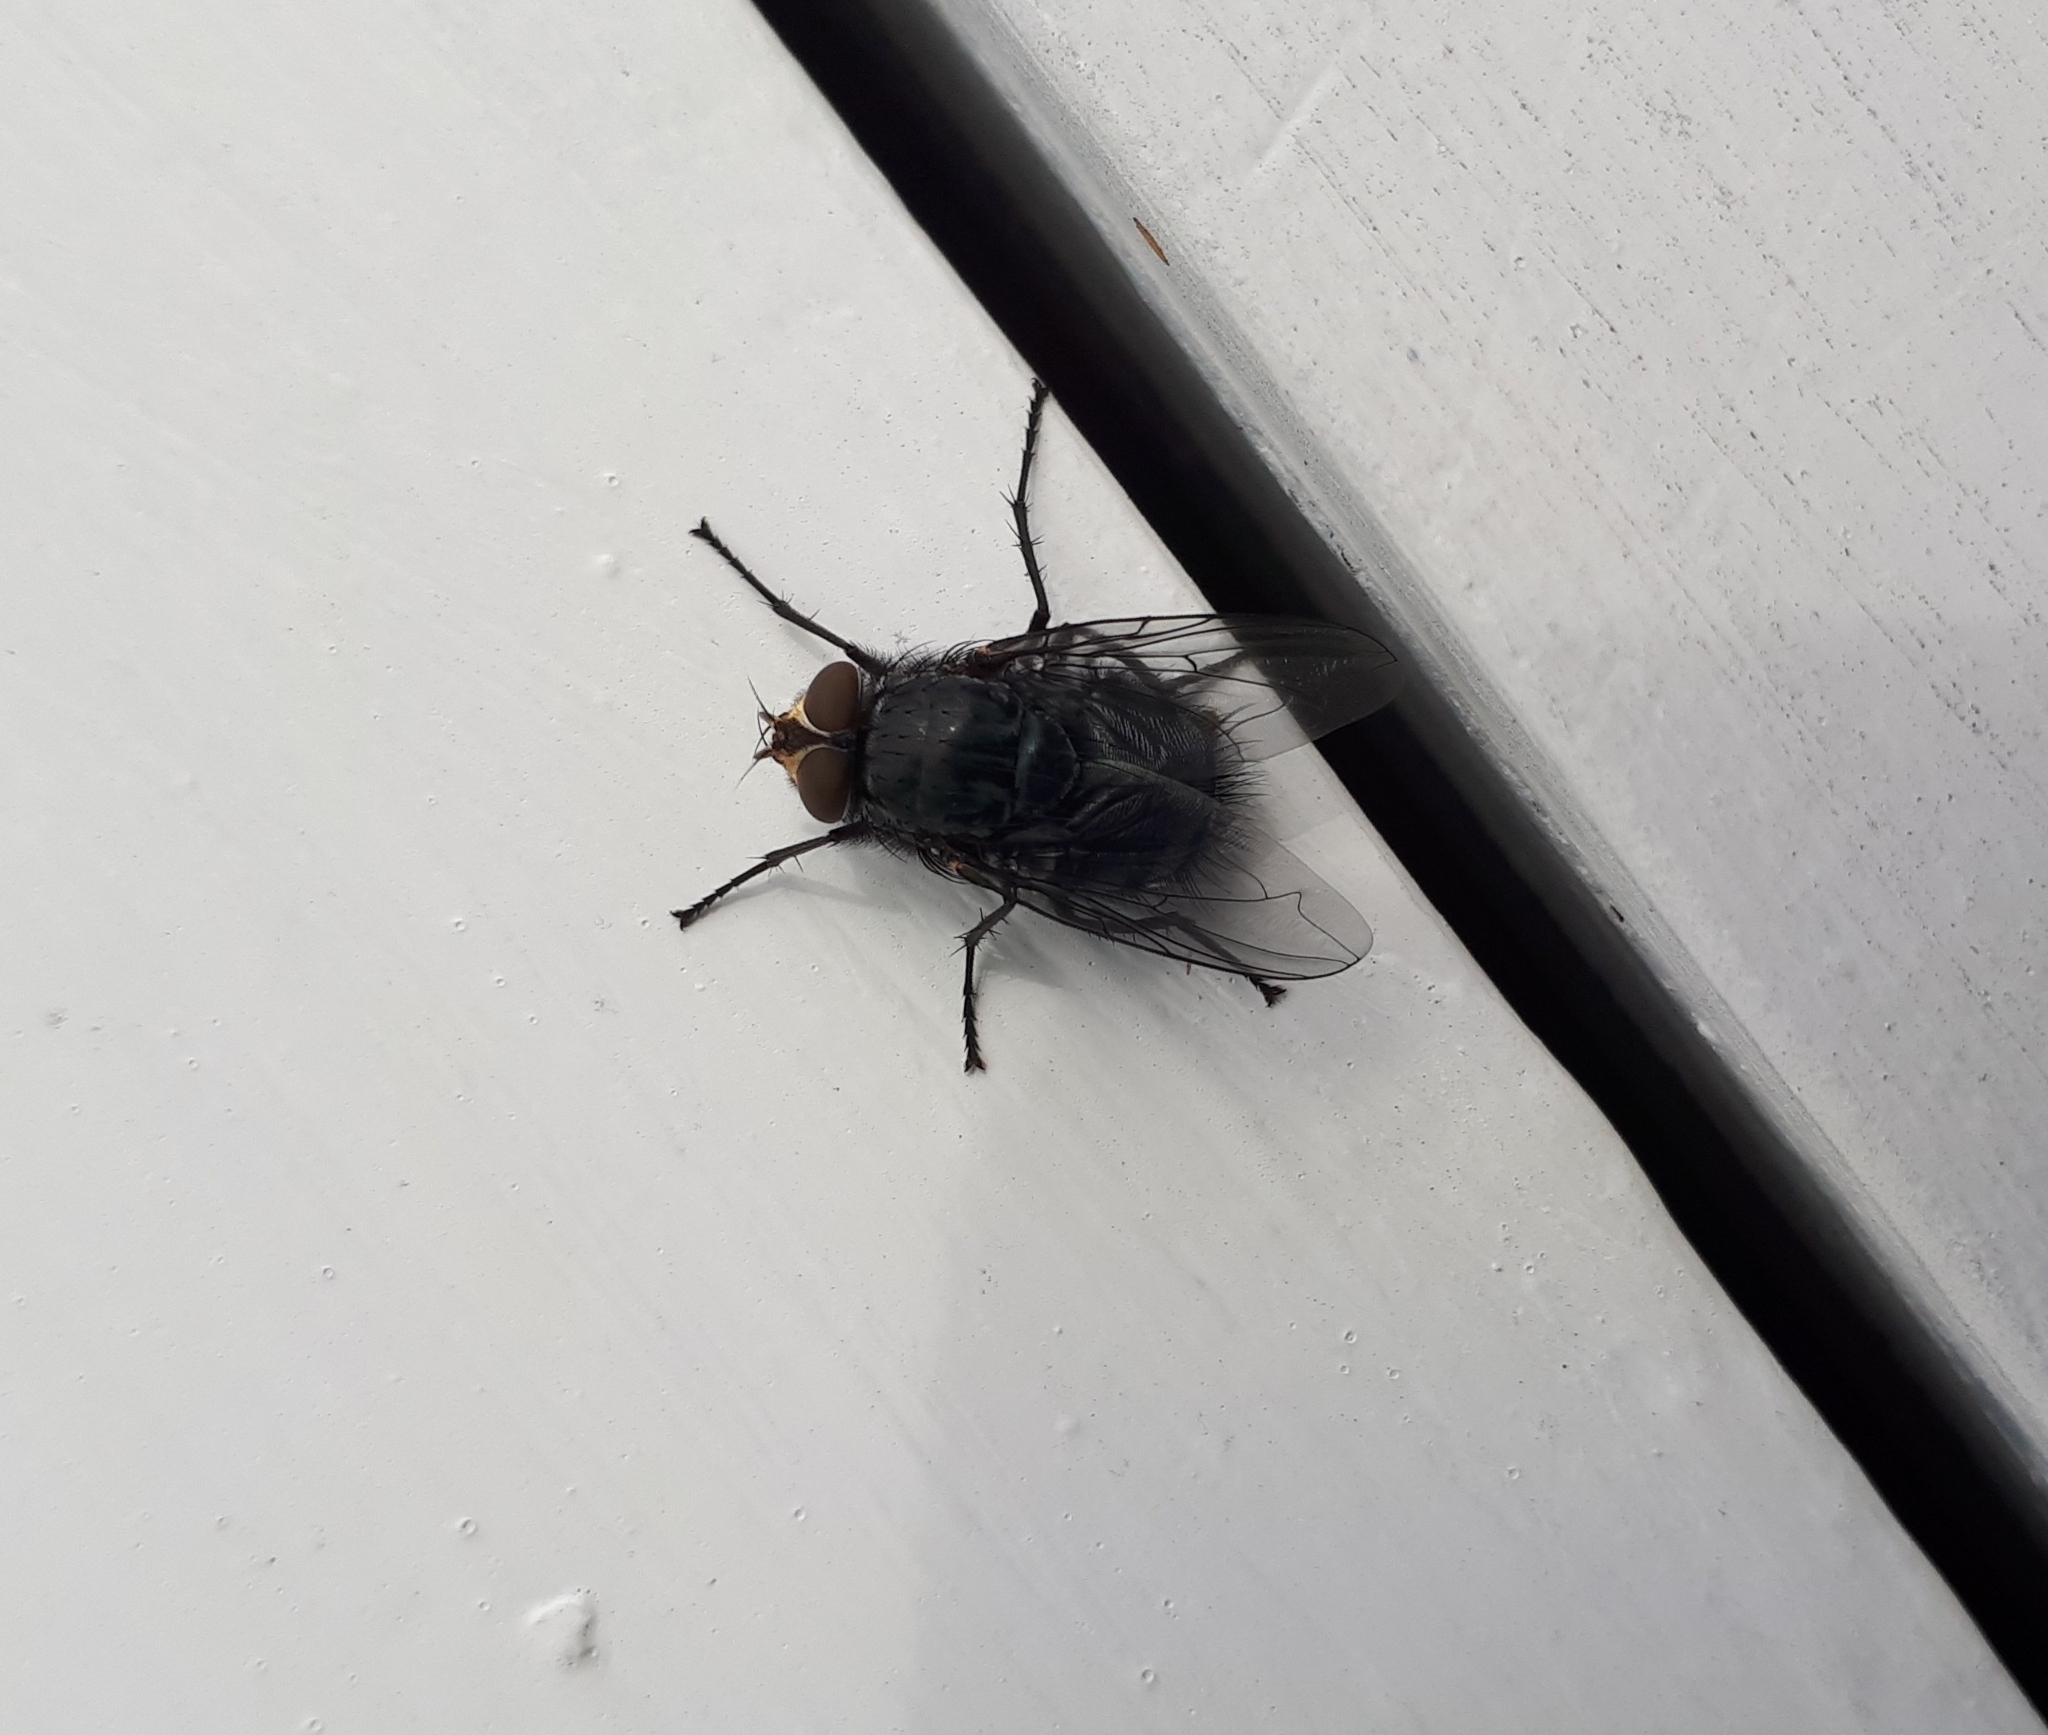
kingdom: Animalia
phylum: Arthropoda
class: Insecta
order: Diptera
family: Calliphoridae
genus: Calliphora
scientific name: Calliphora vicina
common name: Common blow flie
